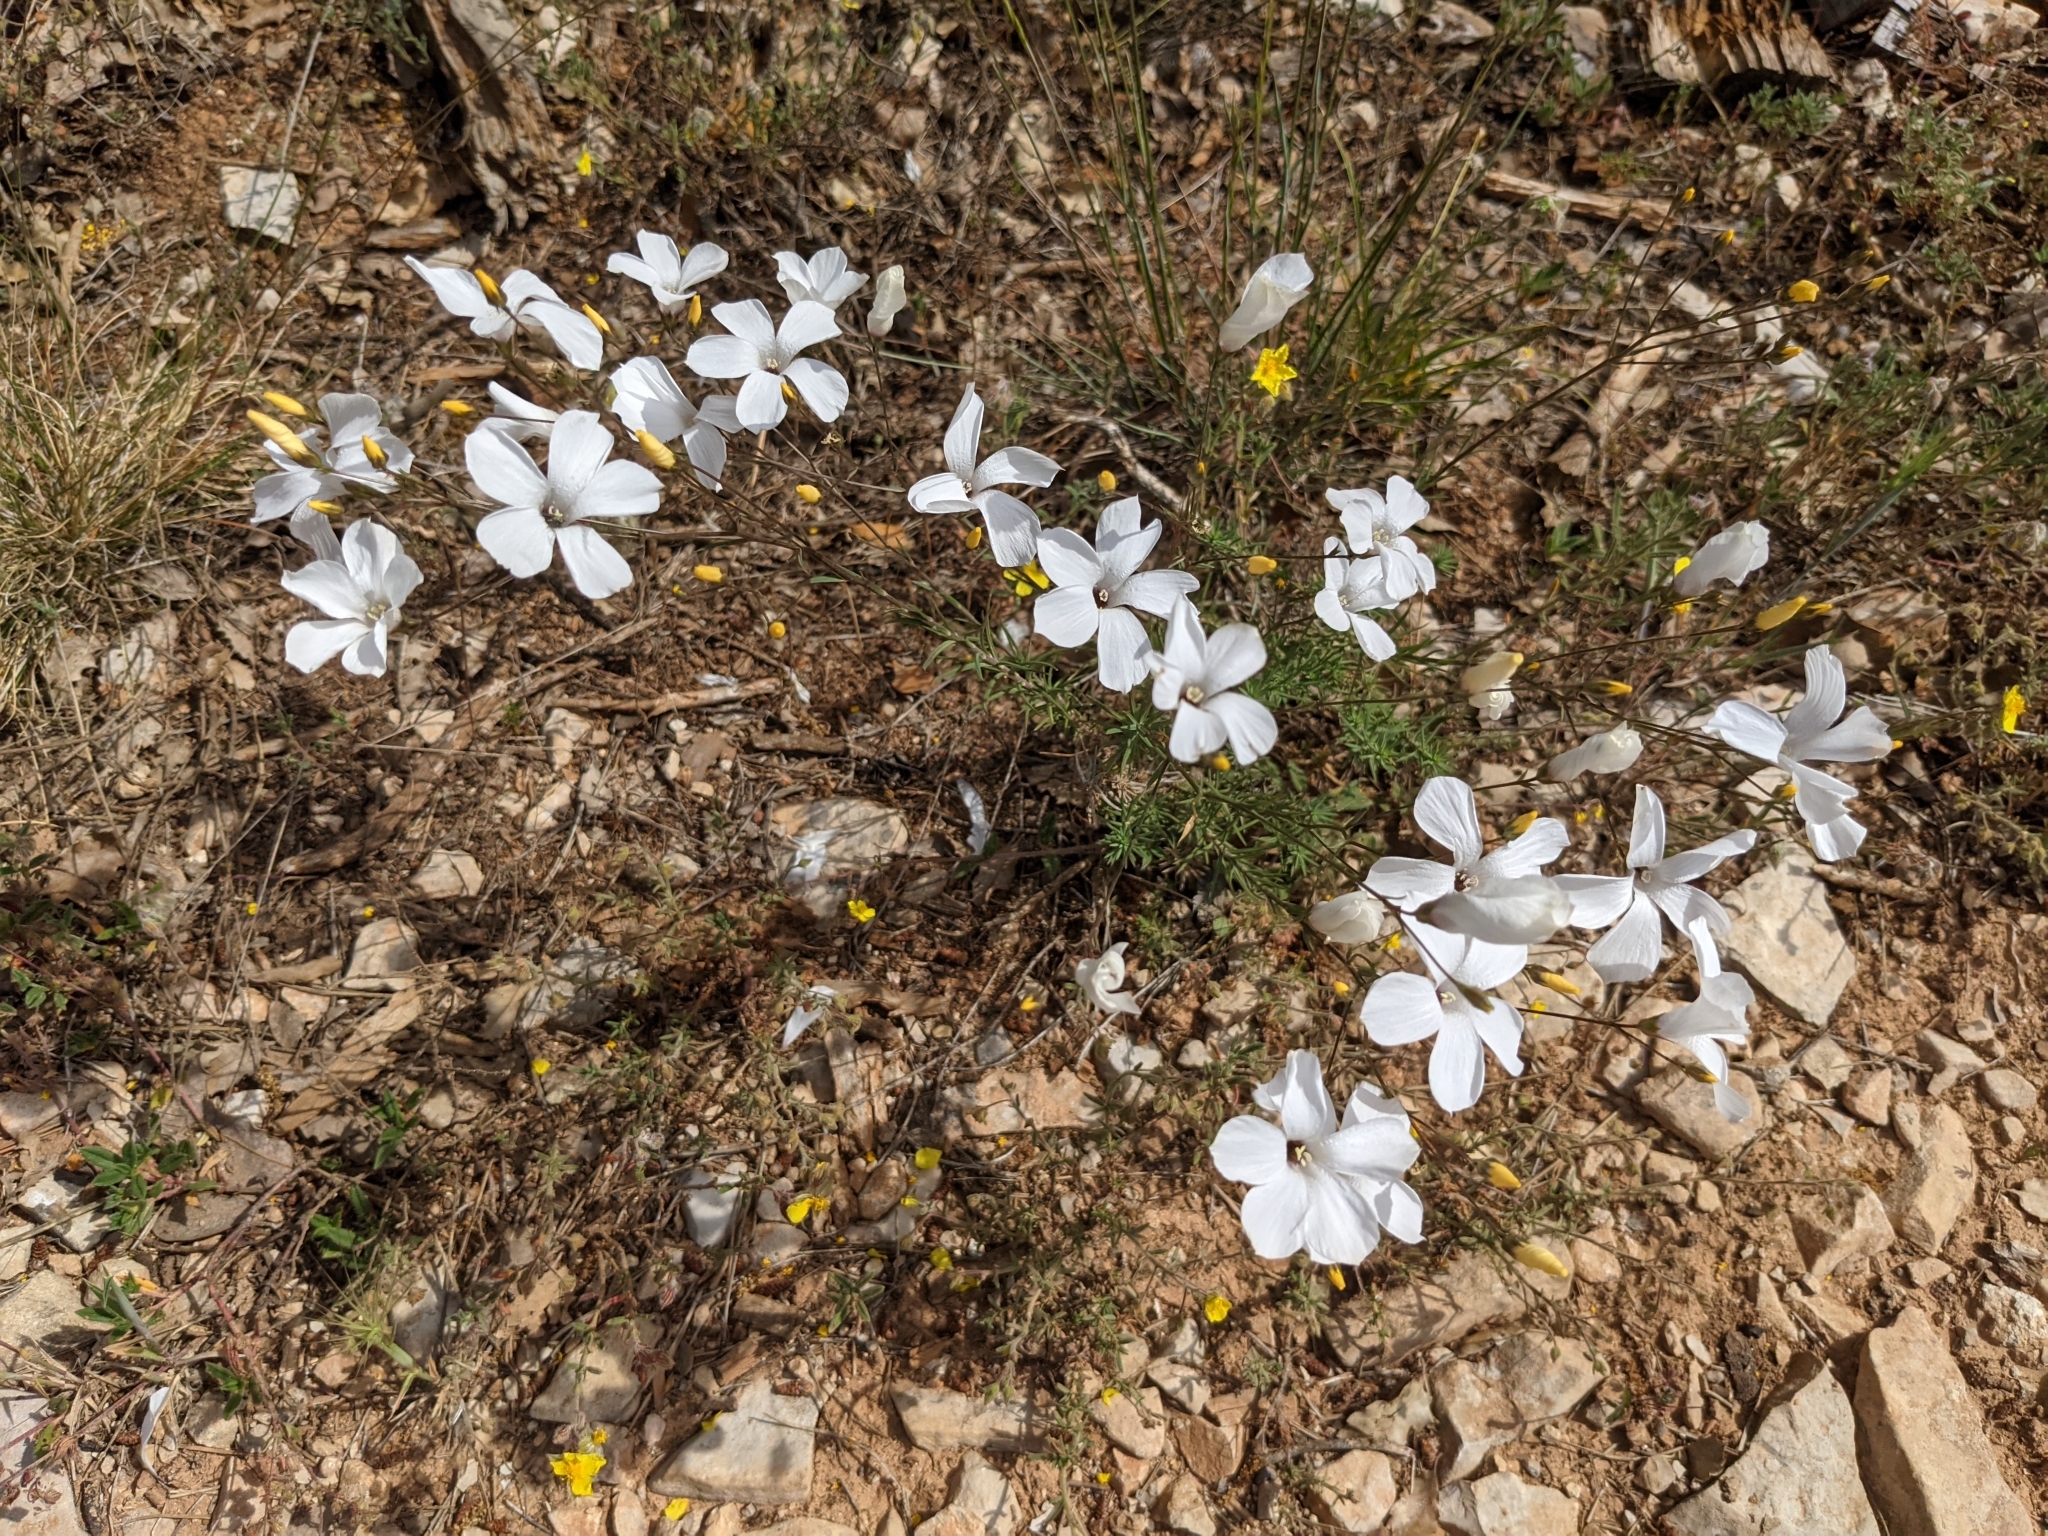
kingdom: Plantae
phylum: Tracheophyta
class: Magnoliopsida
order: Malpighiales
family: Linaceae
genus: Linum
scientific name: Linum suffruticosum
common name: White flax
